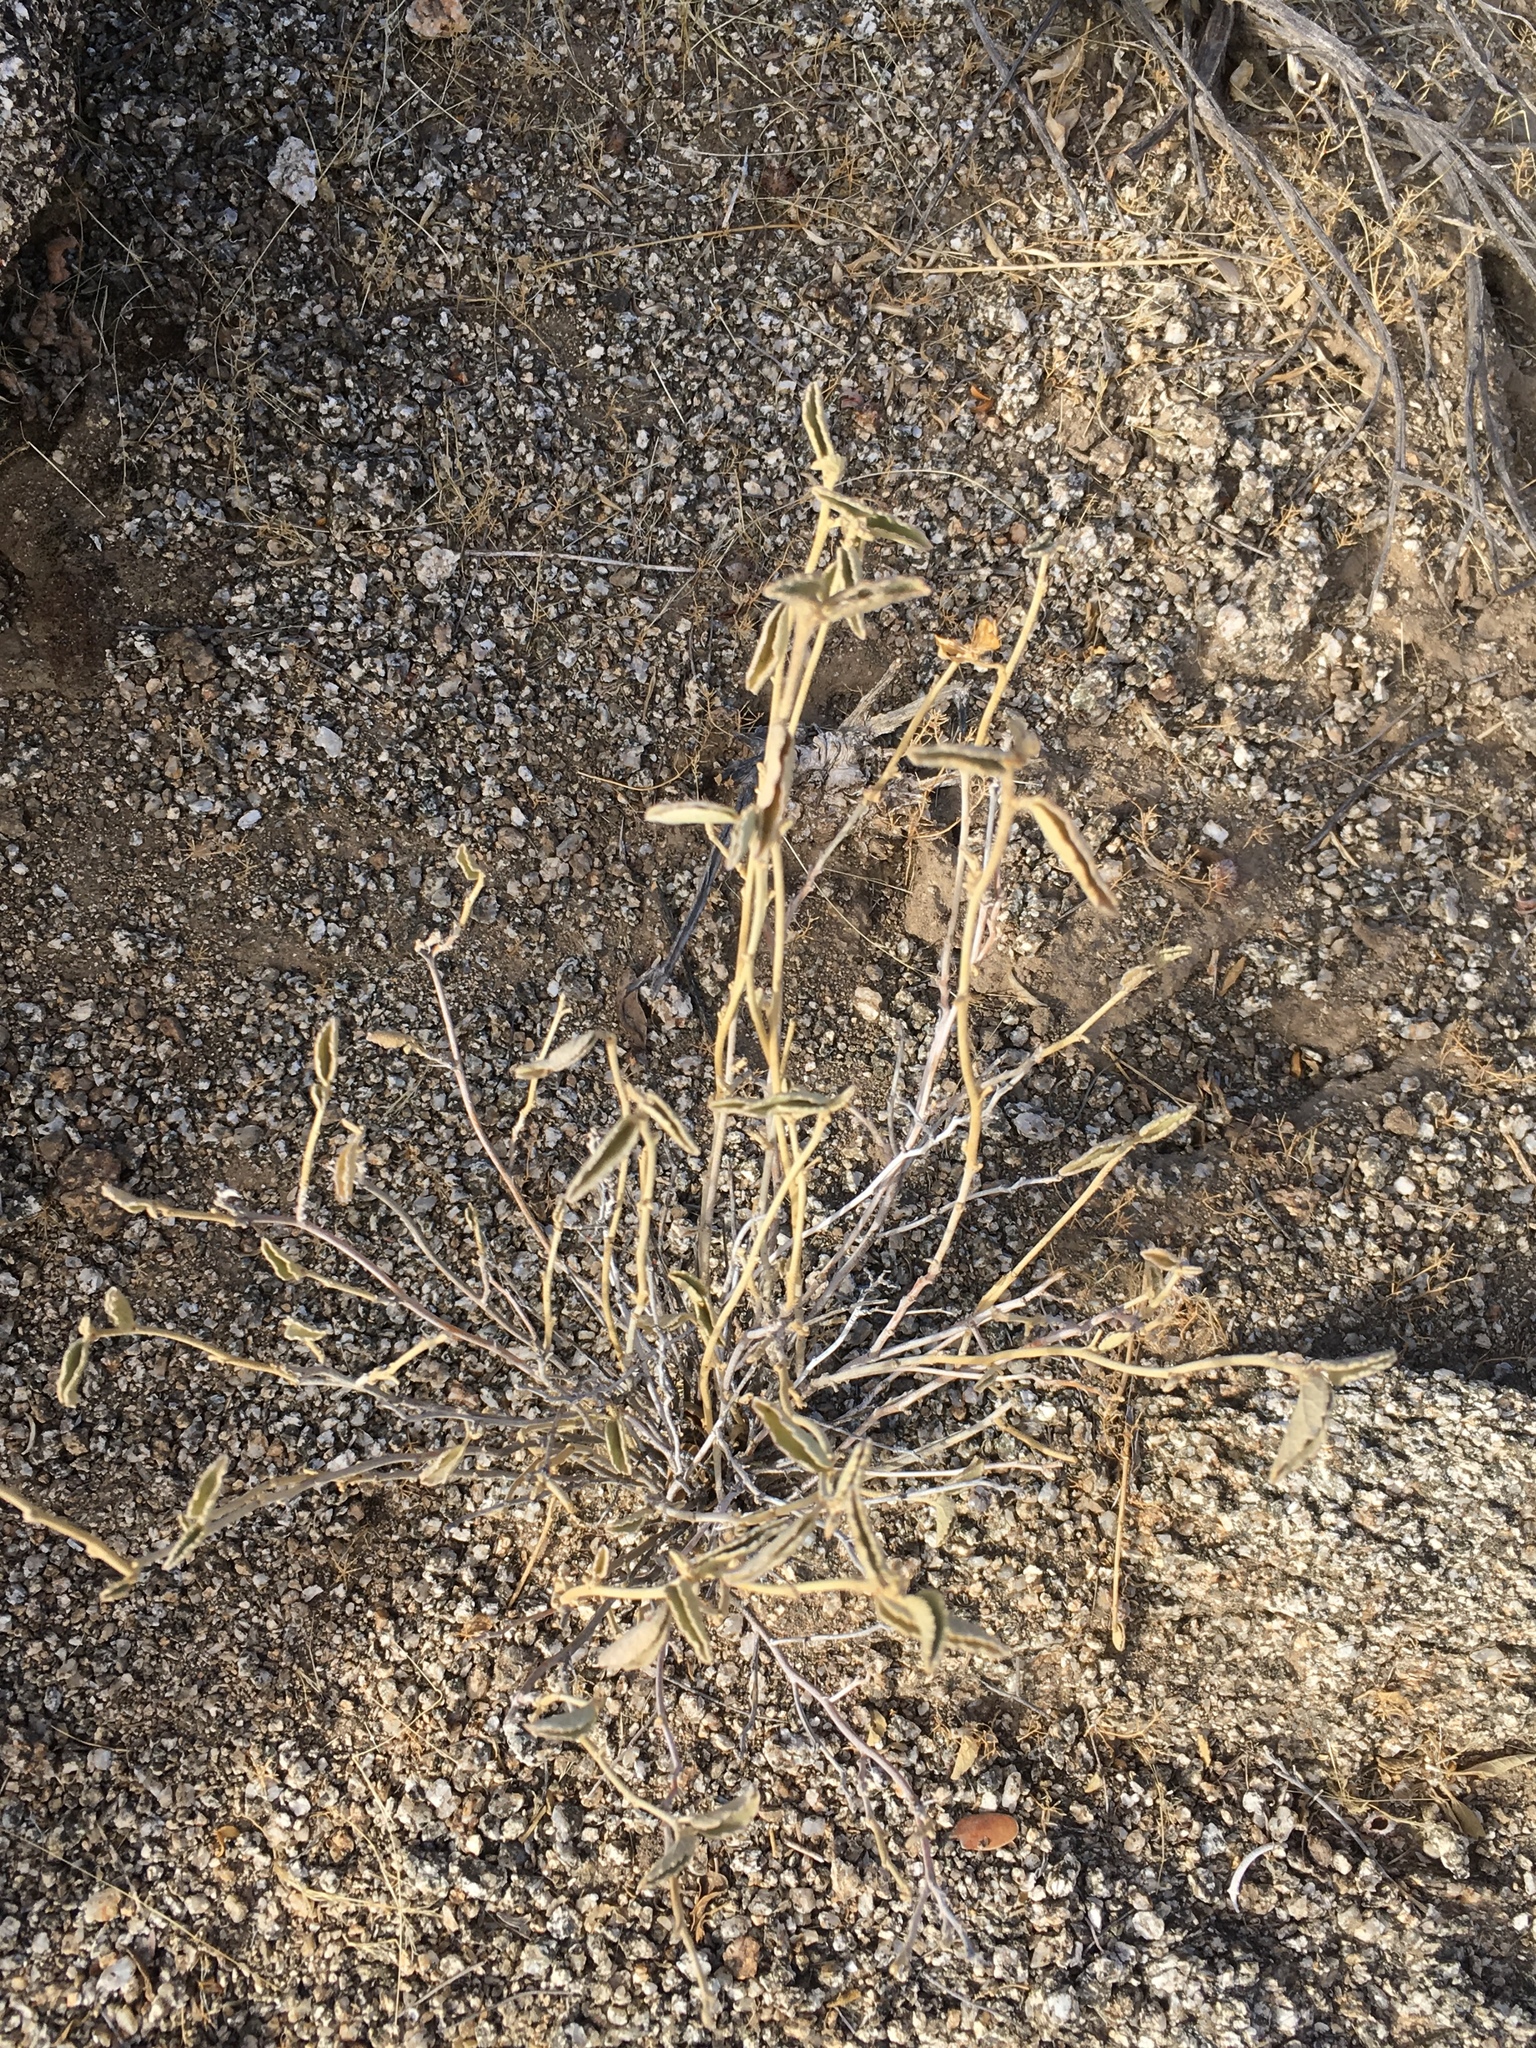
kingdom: Plantae
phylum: Tracheophyta
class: Magnoliopsida
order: Malvales
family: Malvaceae
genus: Hibiscus
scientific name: Hibiscus denudatus
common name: Paleface
